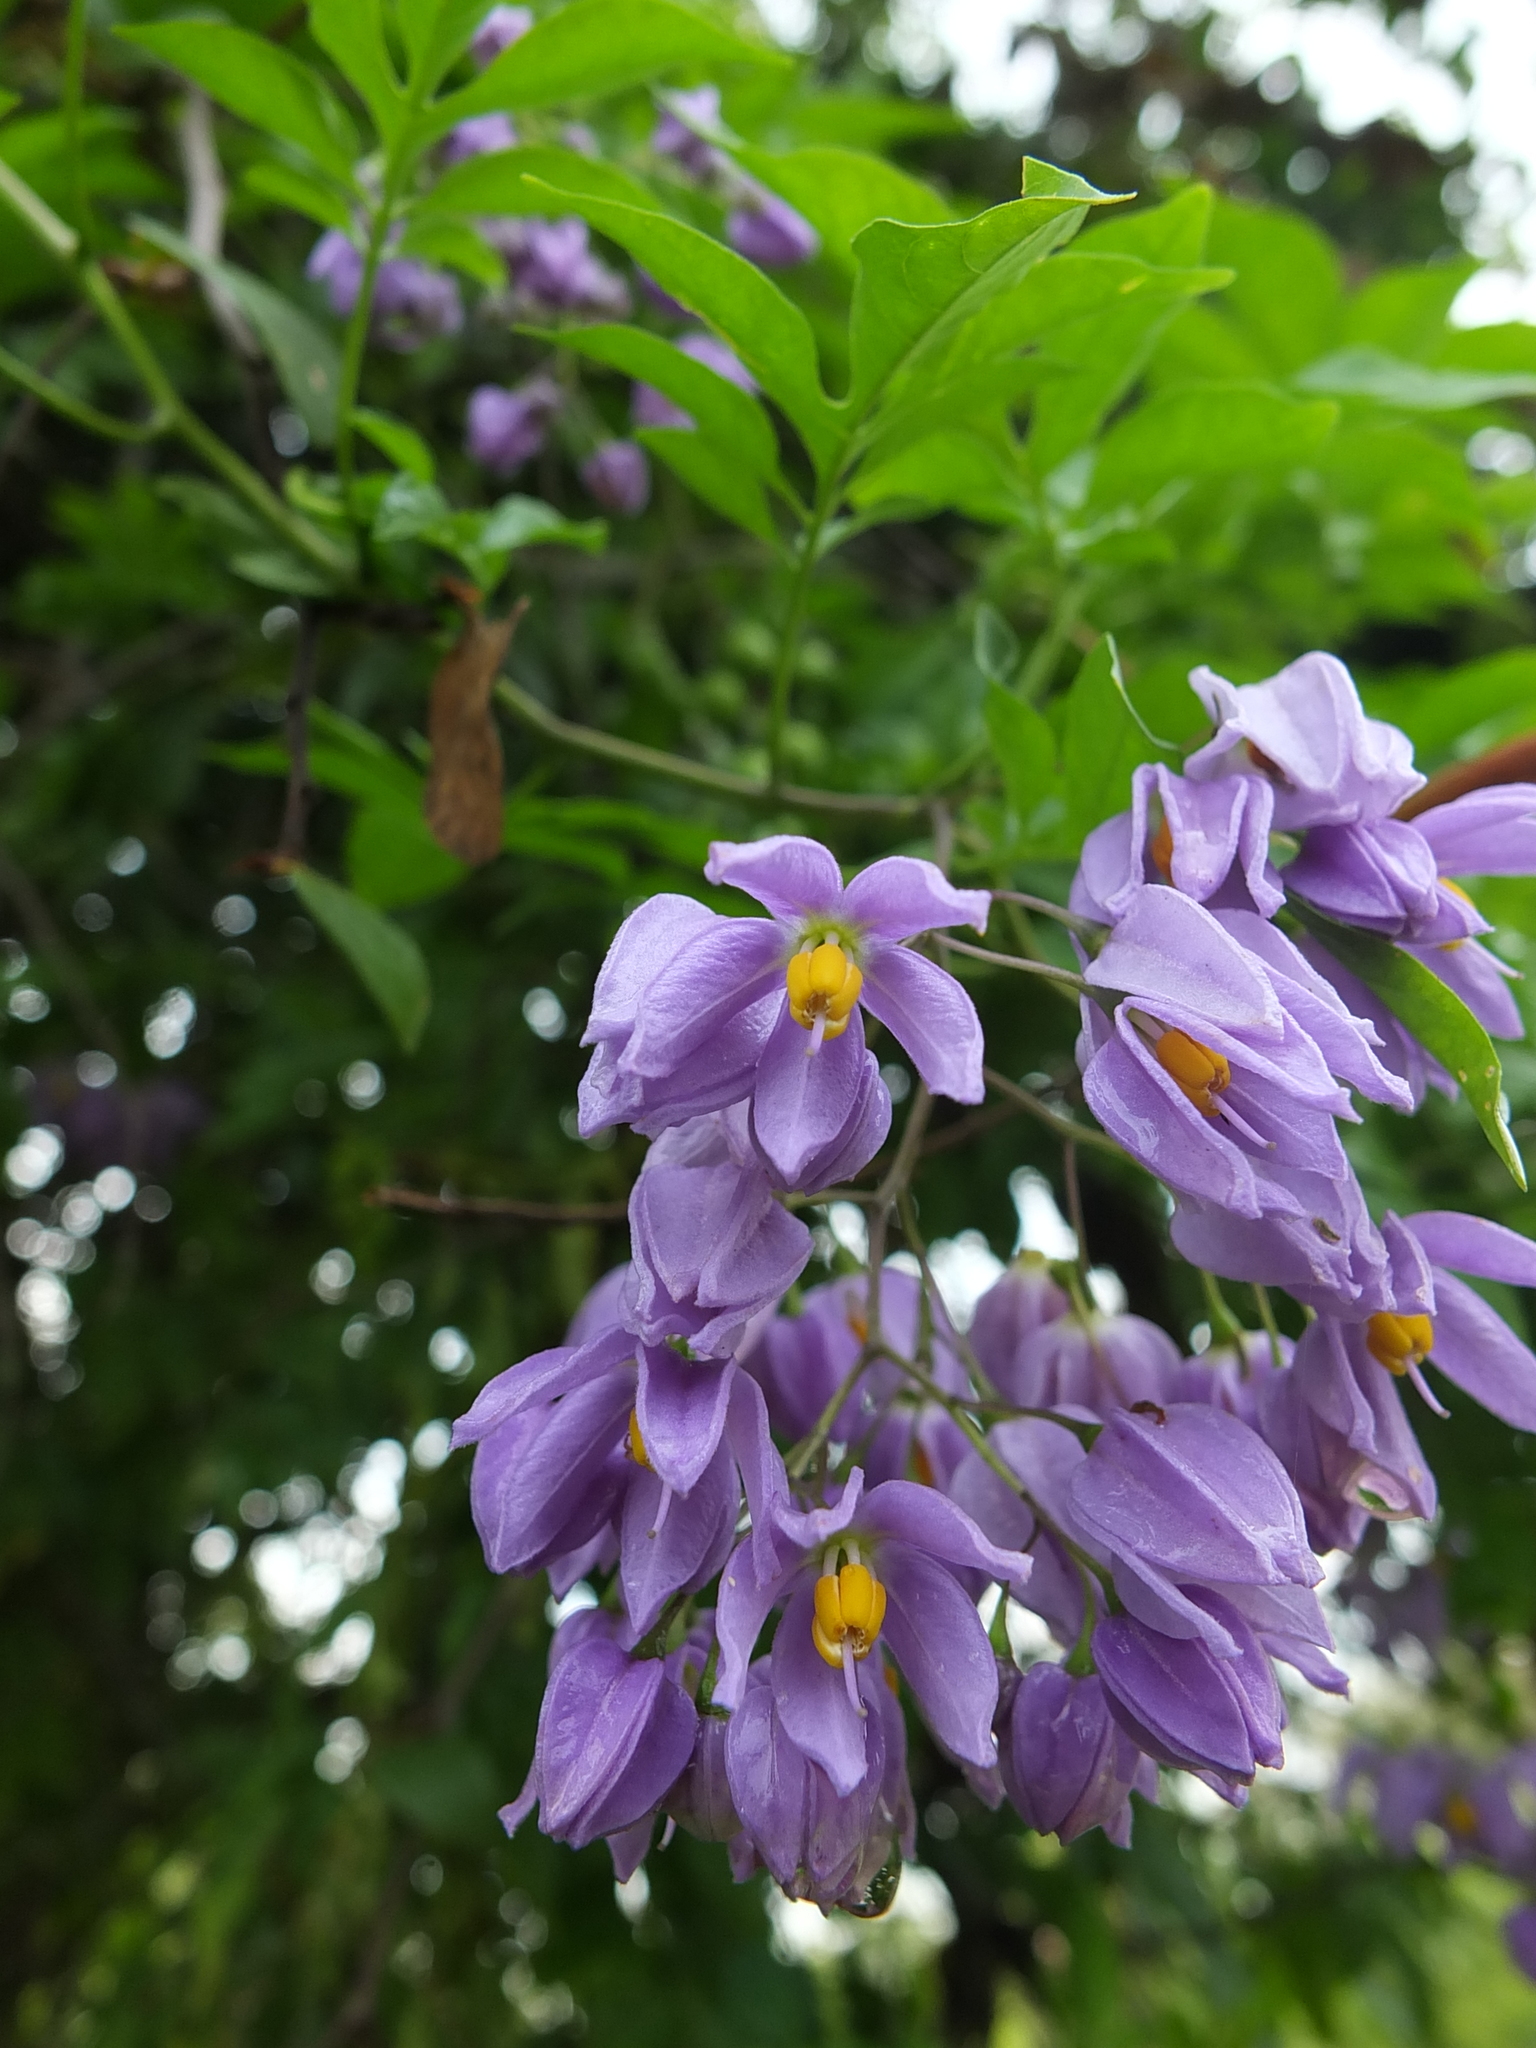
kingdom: Plantae
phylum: Tracheophyta
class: Magnoliopsida
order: Solanales
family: Solanaceae
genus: Solanum
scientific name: Solanum seaforthianum
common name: Brazilian nightshade
